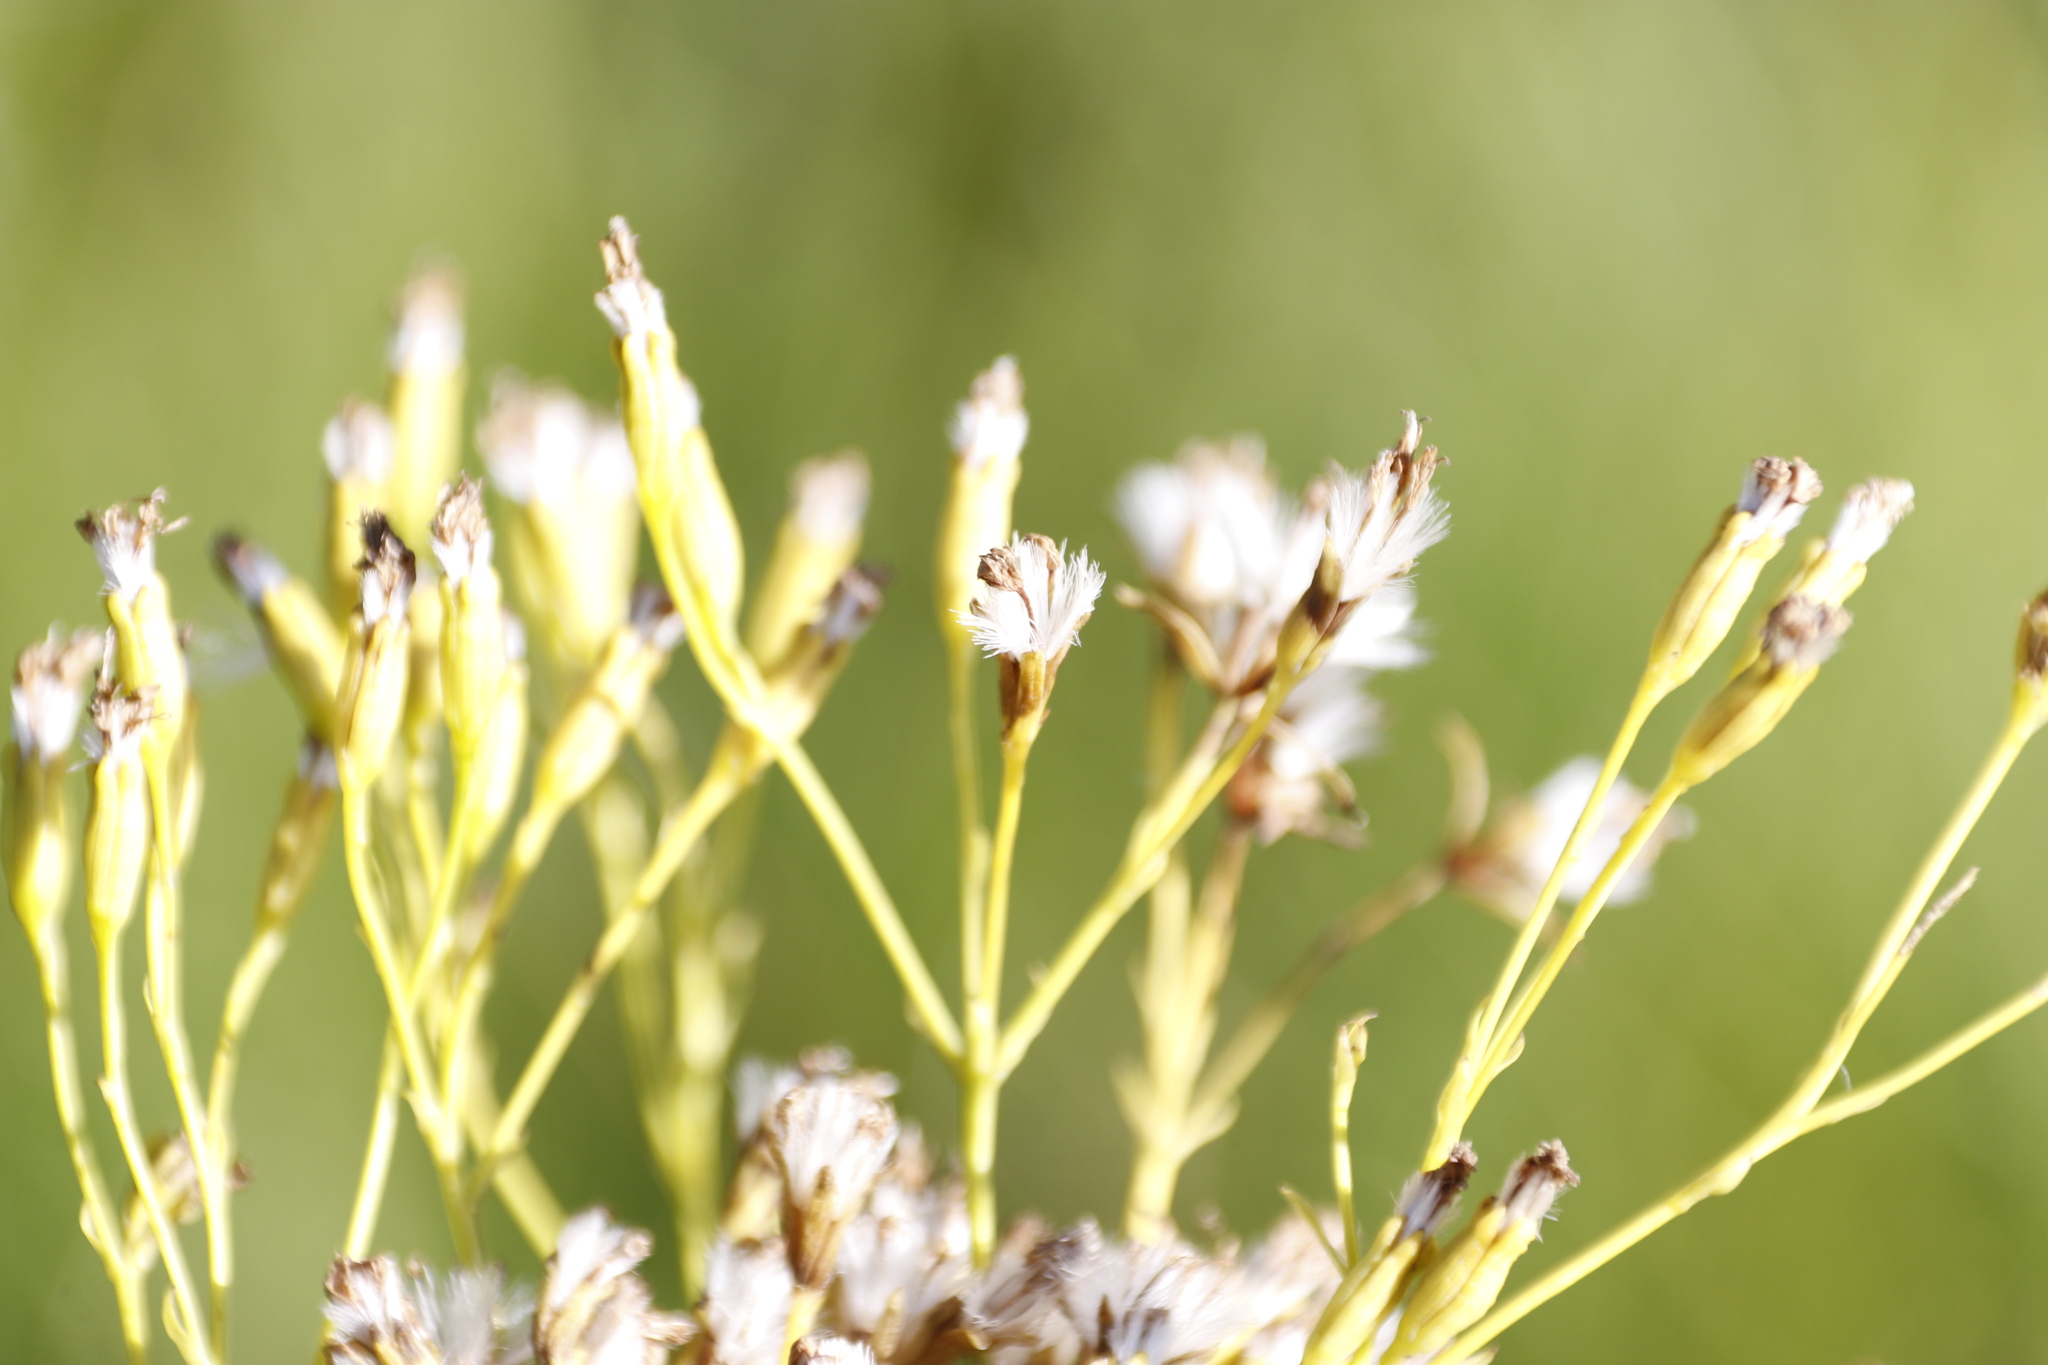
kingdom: Plantae
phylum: Tracheophyta
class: Magnoliopsida
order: Asterales
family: Asteraceae
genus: Senecio
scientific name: Senecio isatideus
